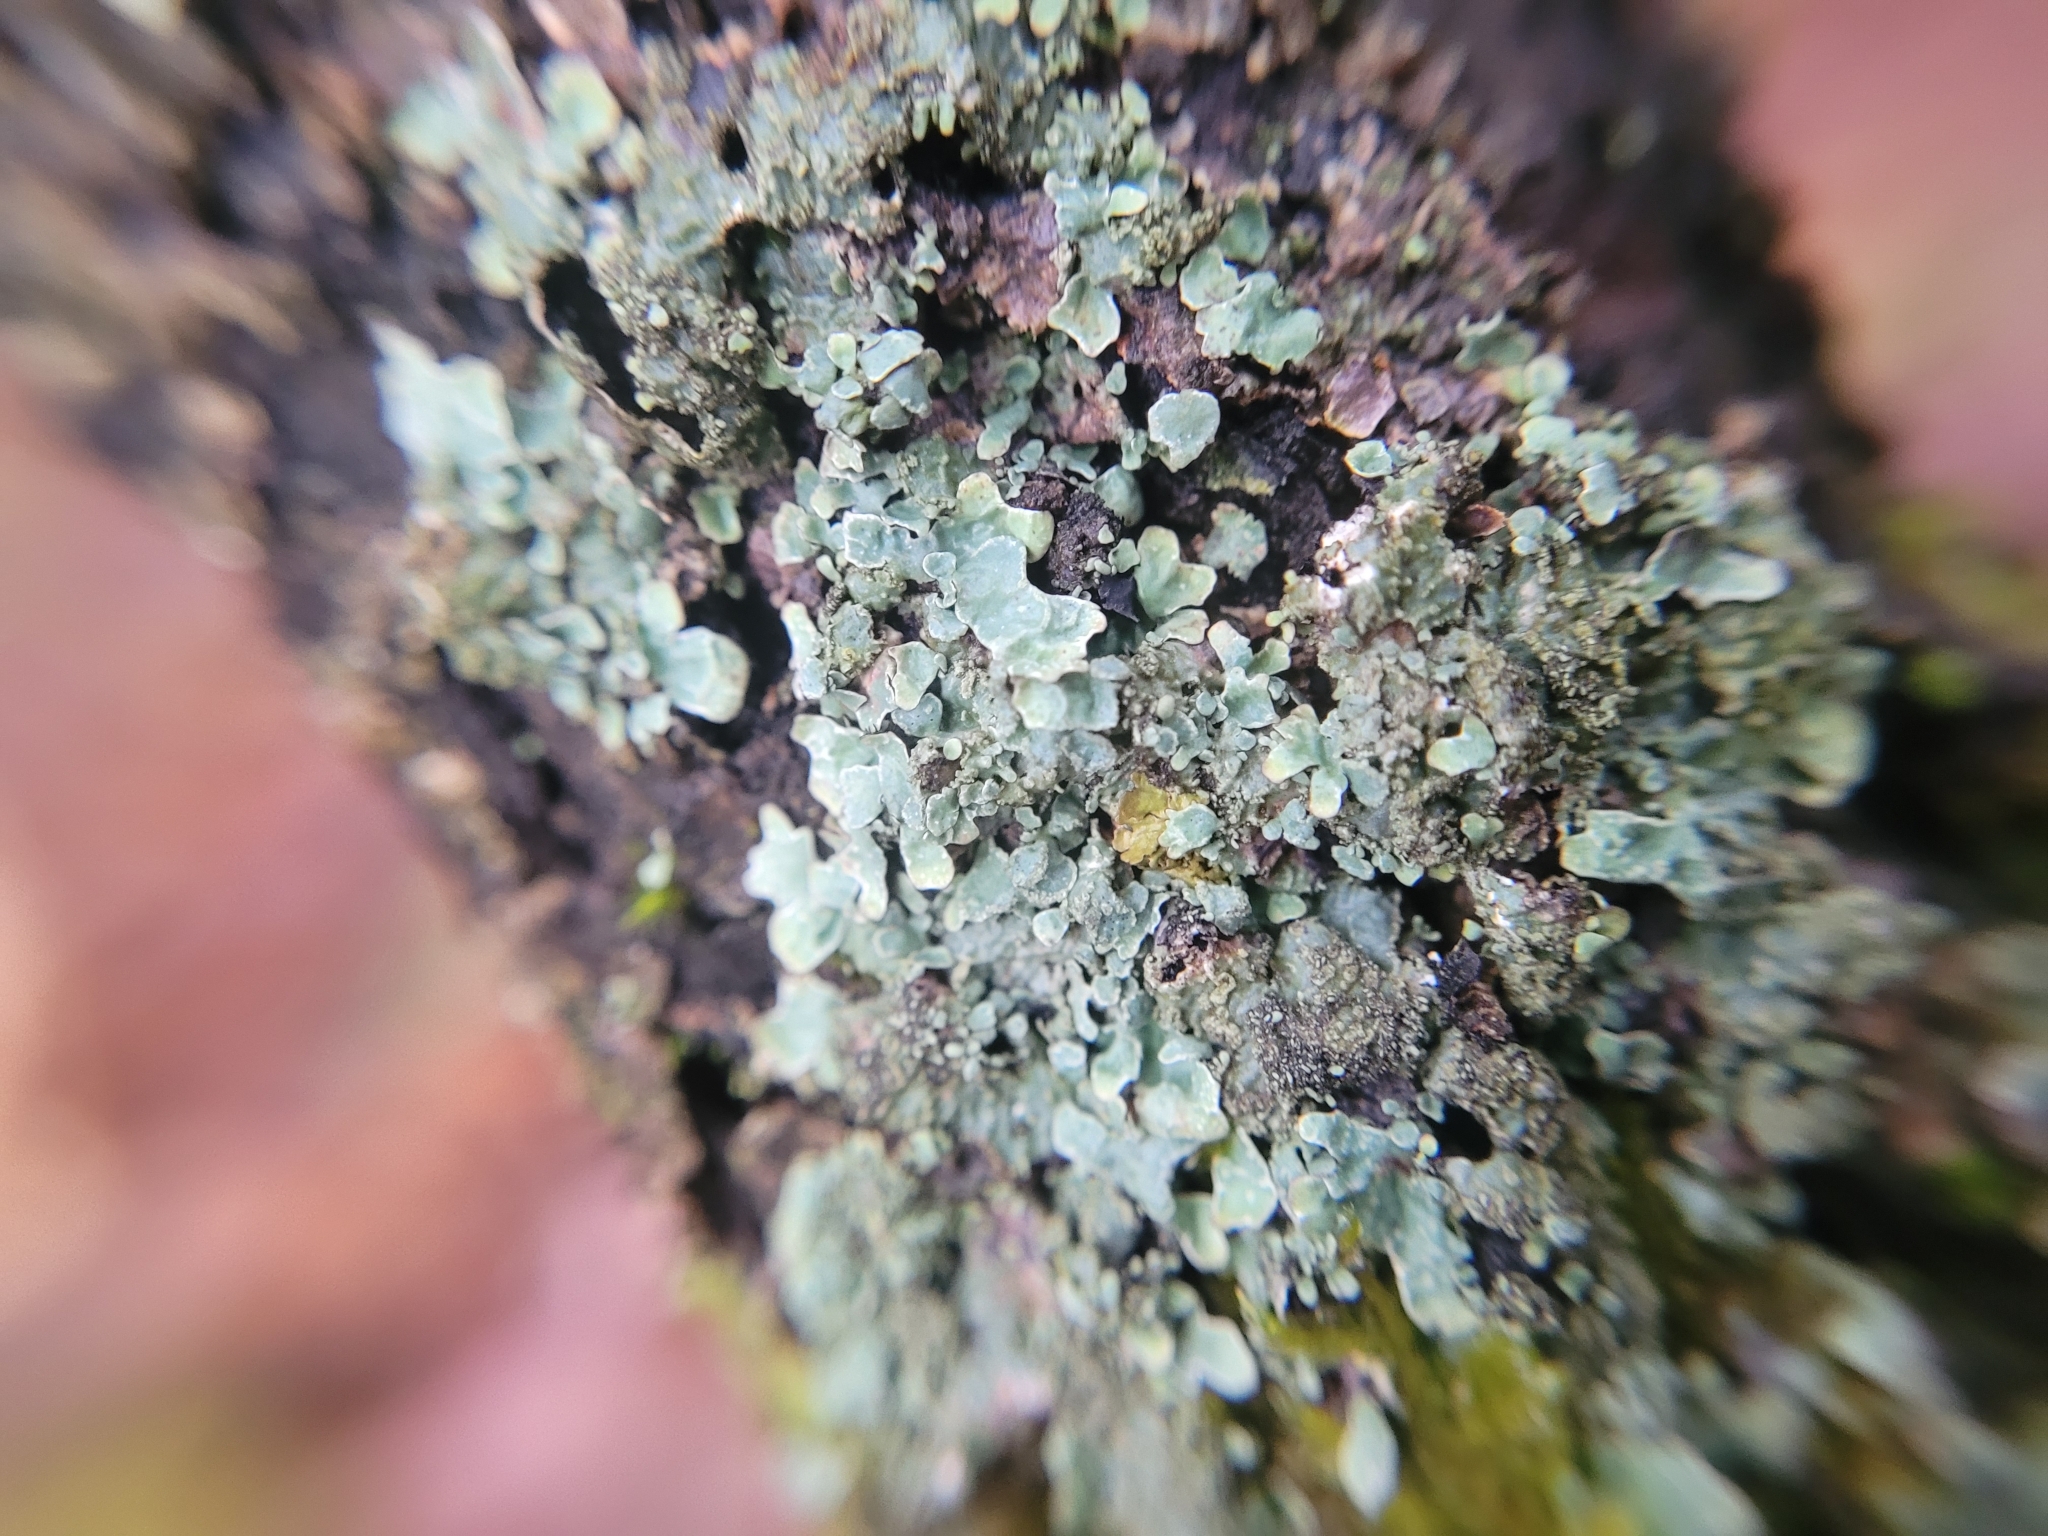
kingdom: Fungi
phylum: Ascomycota
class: Lecanoromycetes
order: Lecanorales
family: Parmeliaceae
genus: Parmelia
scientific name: Parmelia sulcata
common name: Netted shield lichen
